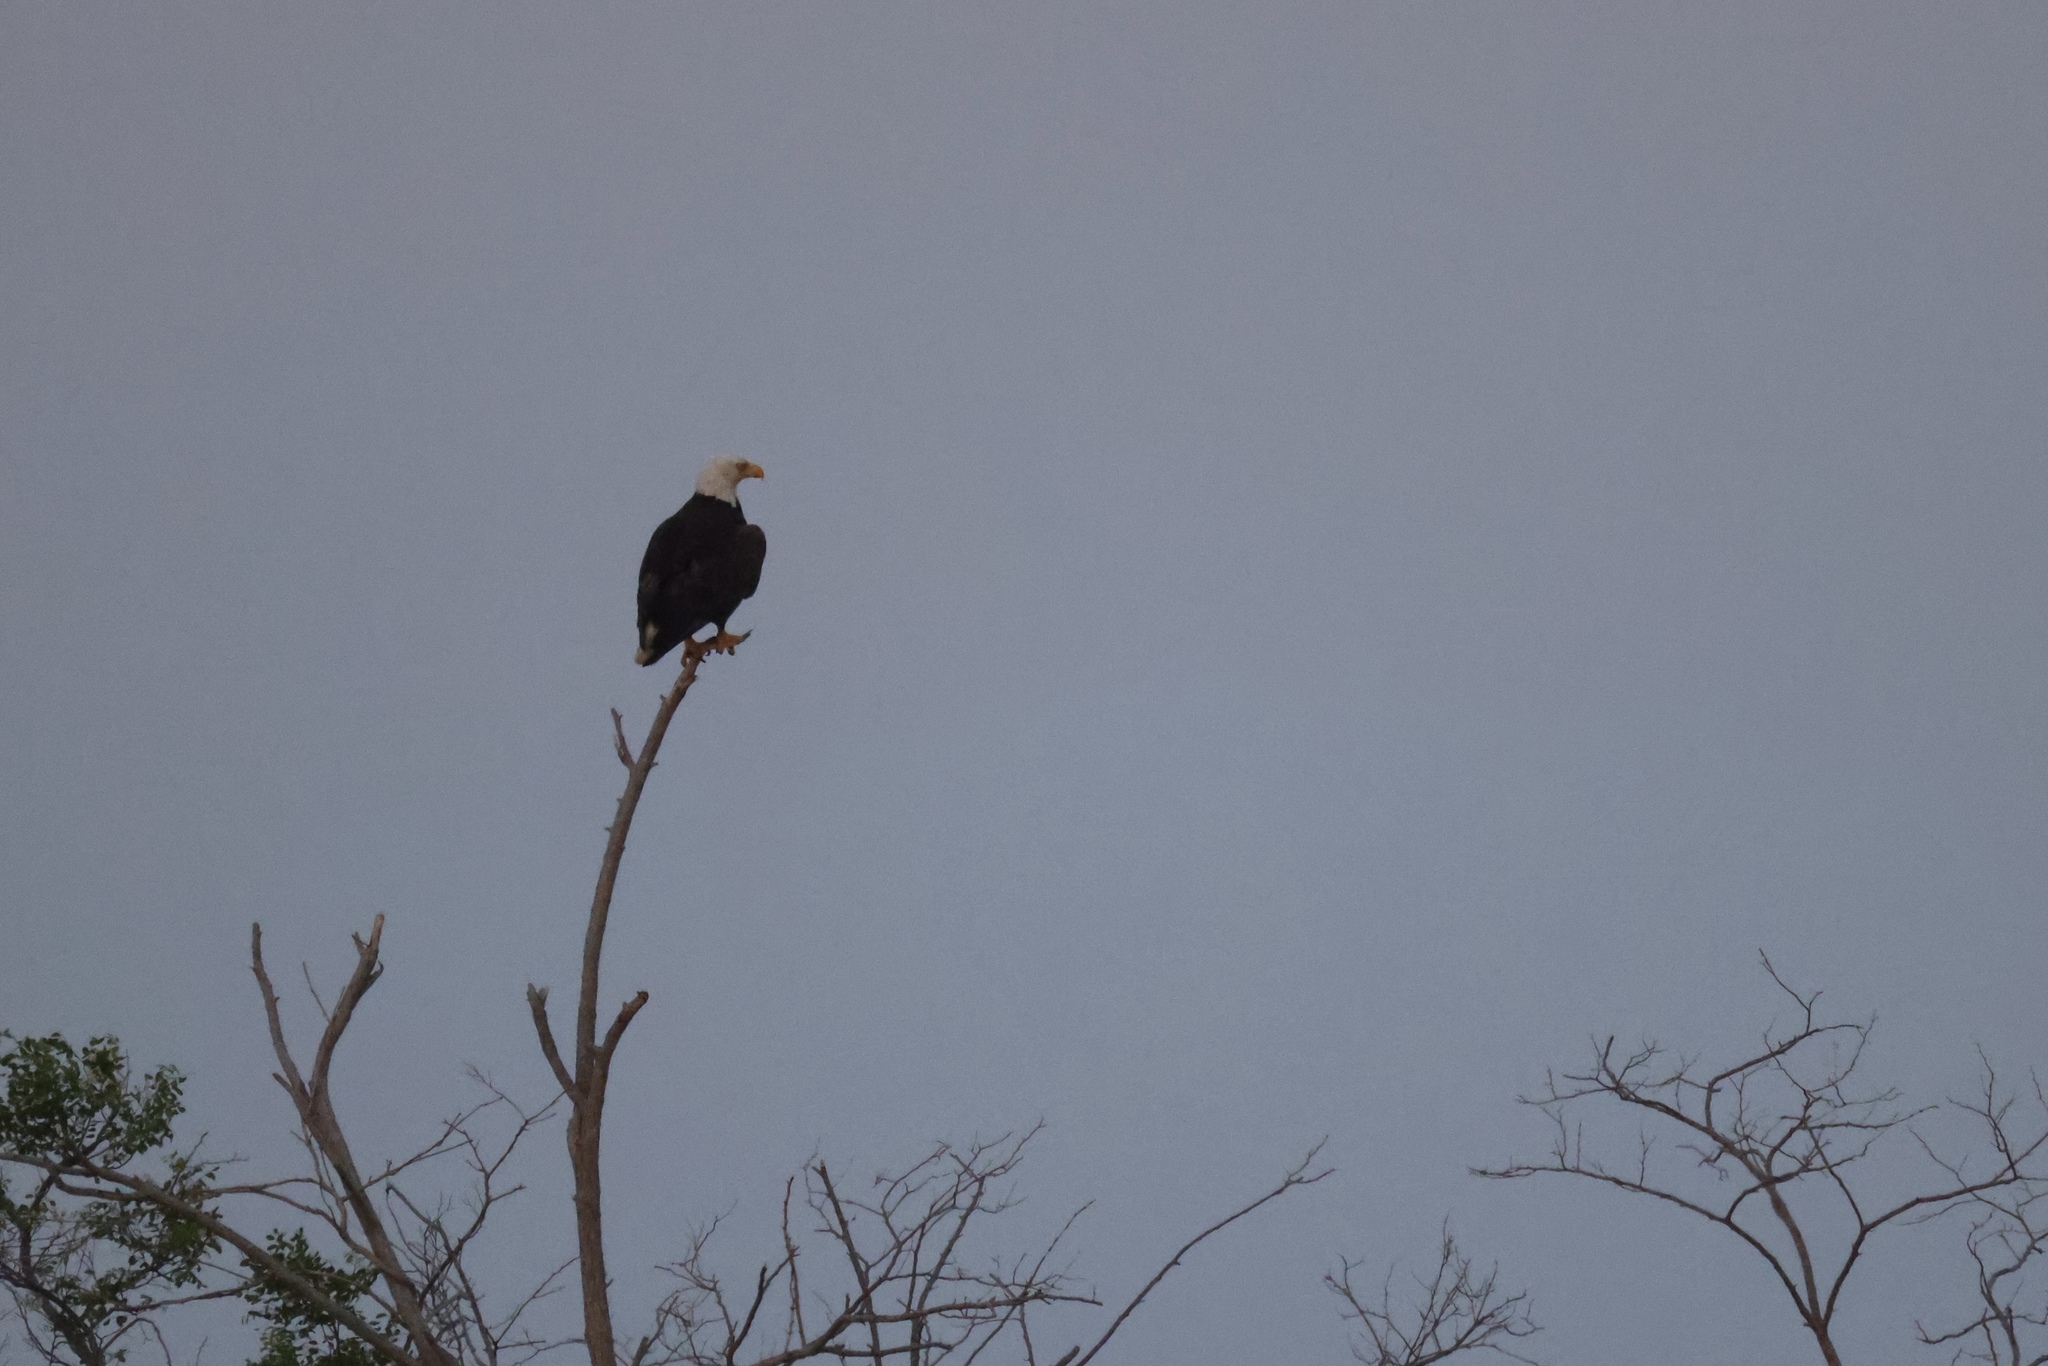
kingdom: Animalia
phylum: Chordata
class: Aves
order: Accipitriformes
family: Accipitridae
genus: Haliaeetus
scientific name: Haliaeetus leucocephalus
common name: Bald eagle
